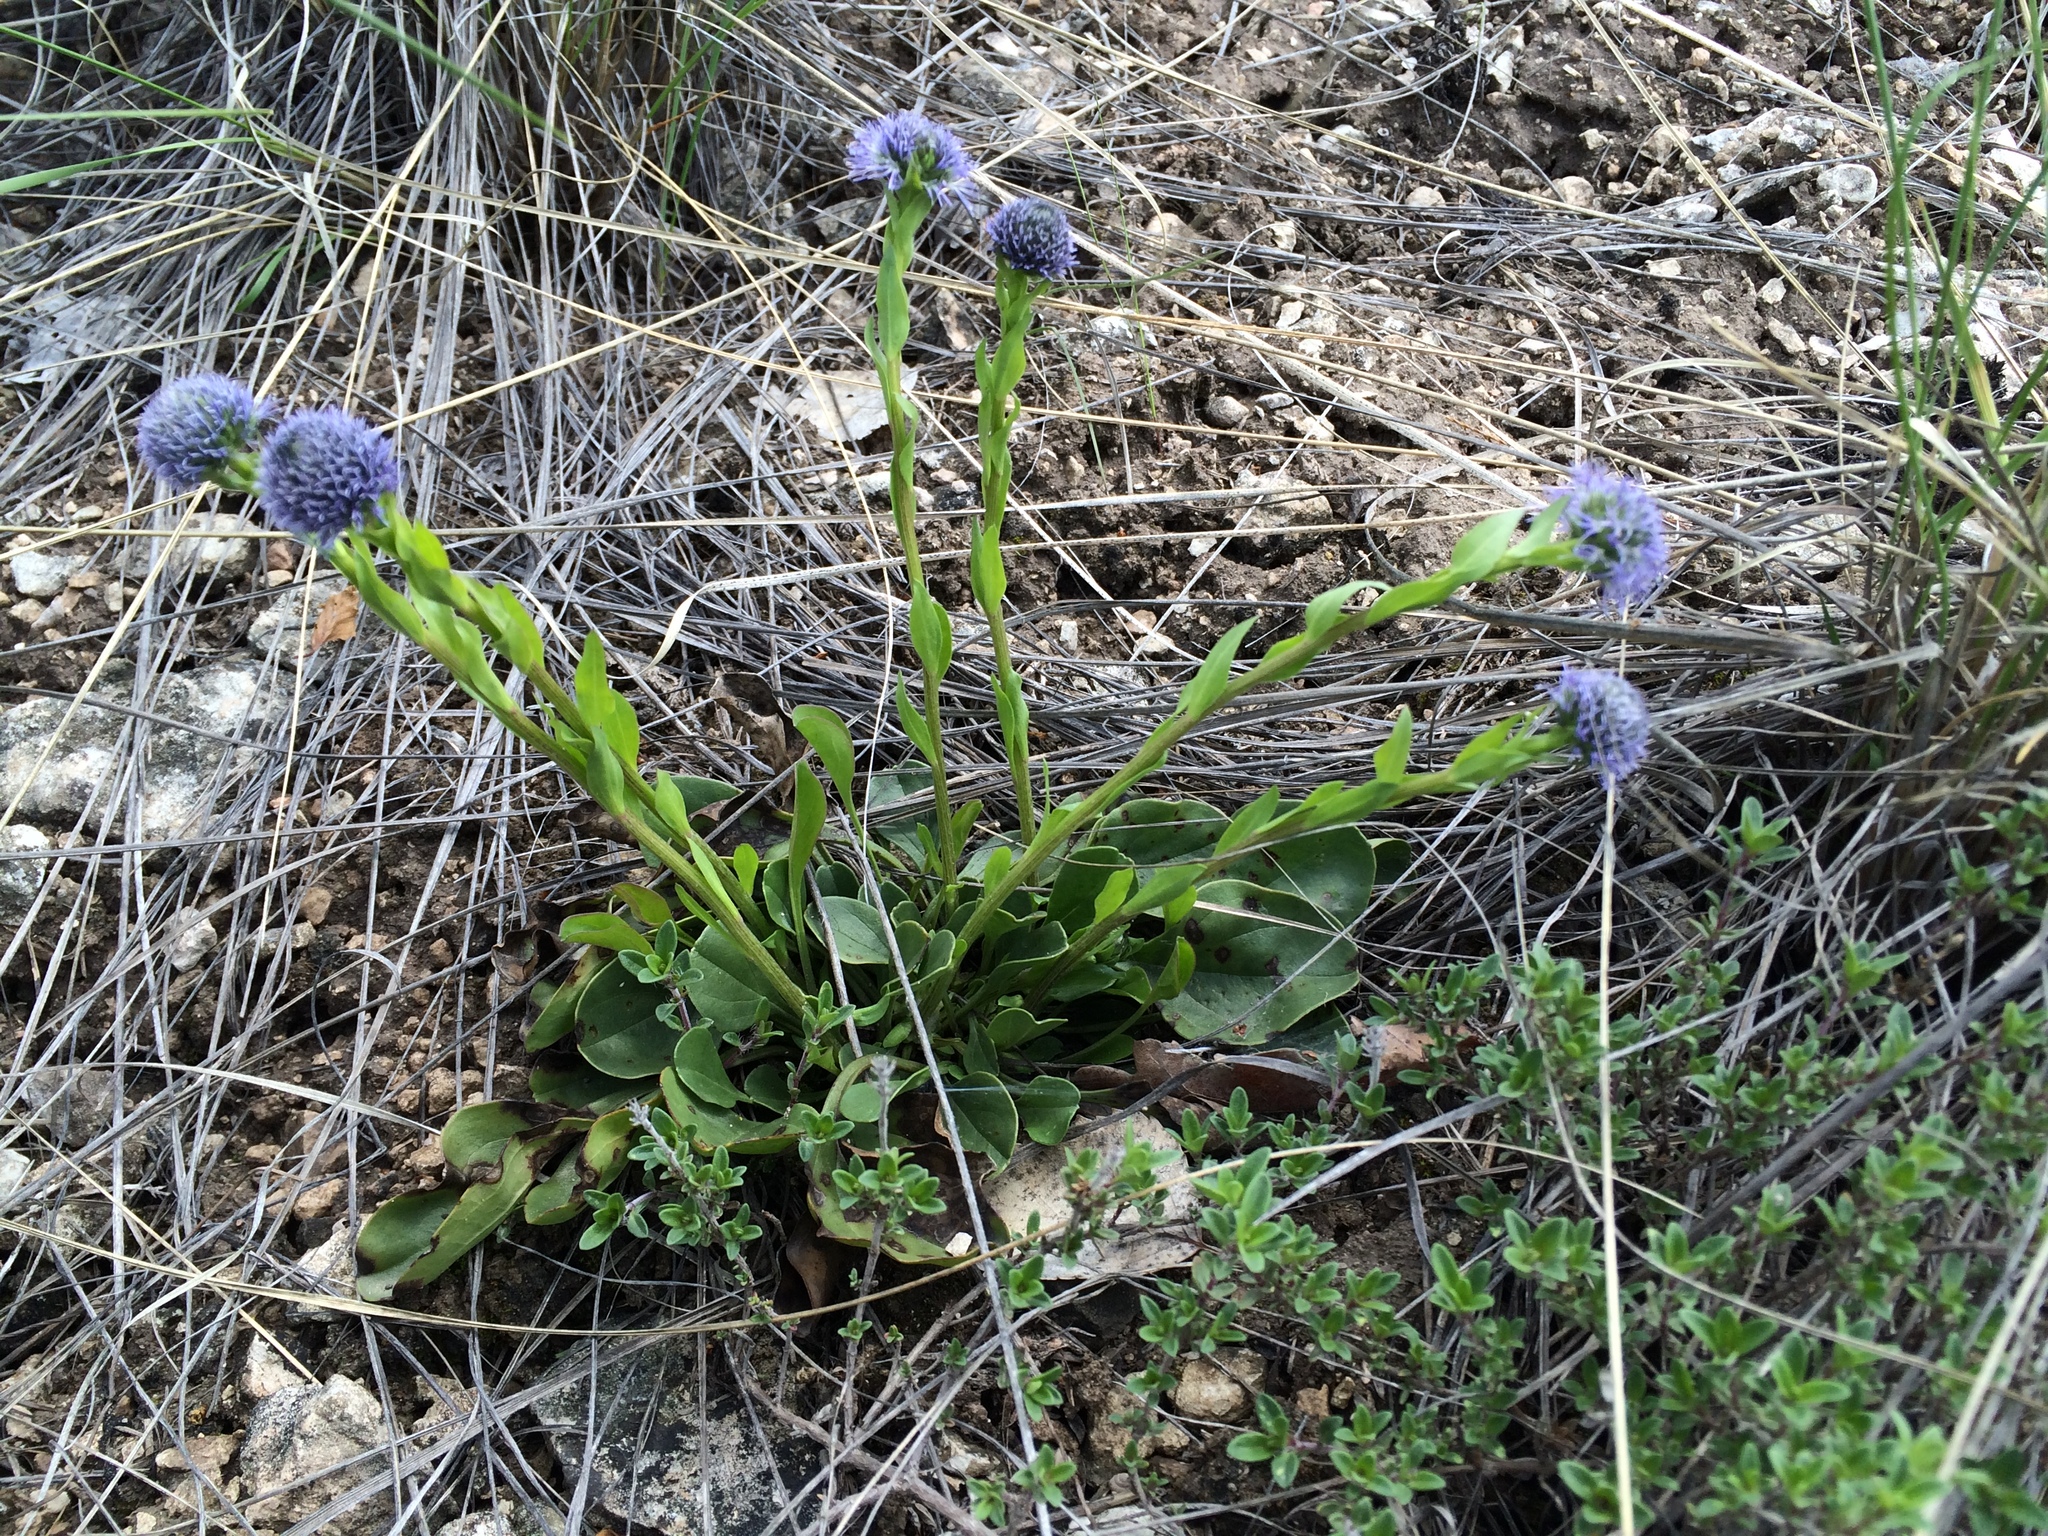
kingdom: Plantae
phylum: Tracheophyta
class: Magnoliopsida
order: Lamiales
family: Plantaginaceae
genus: Globularia
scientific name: Globularia bisnagarica
